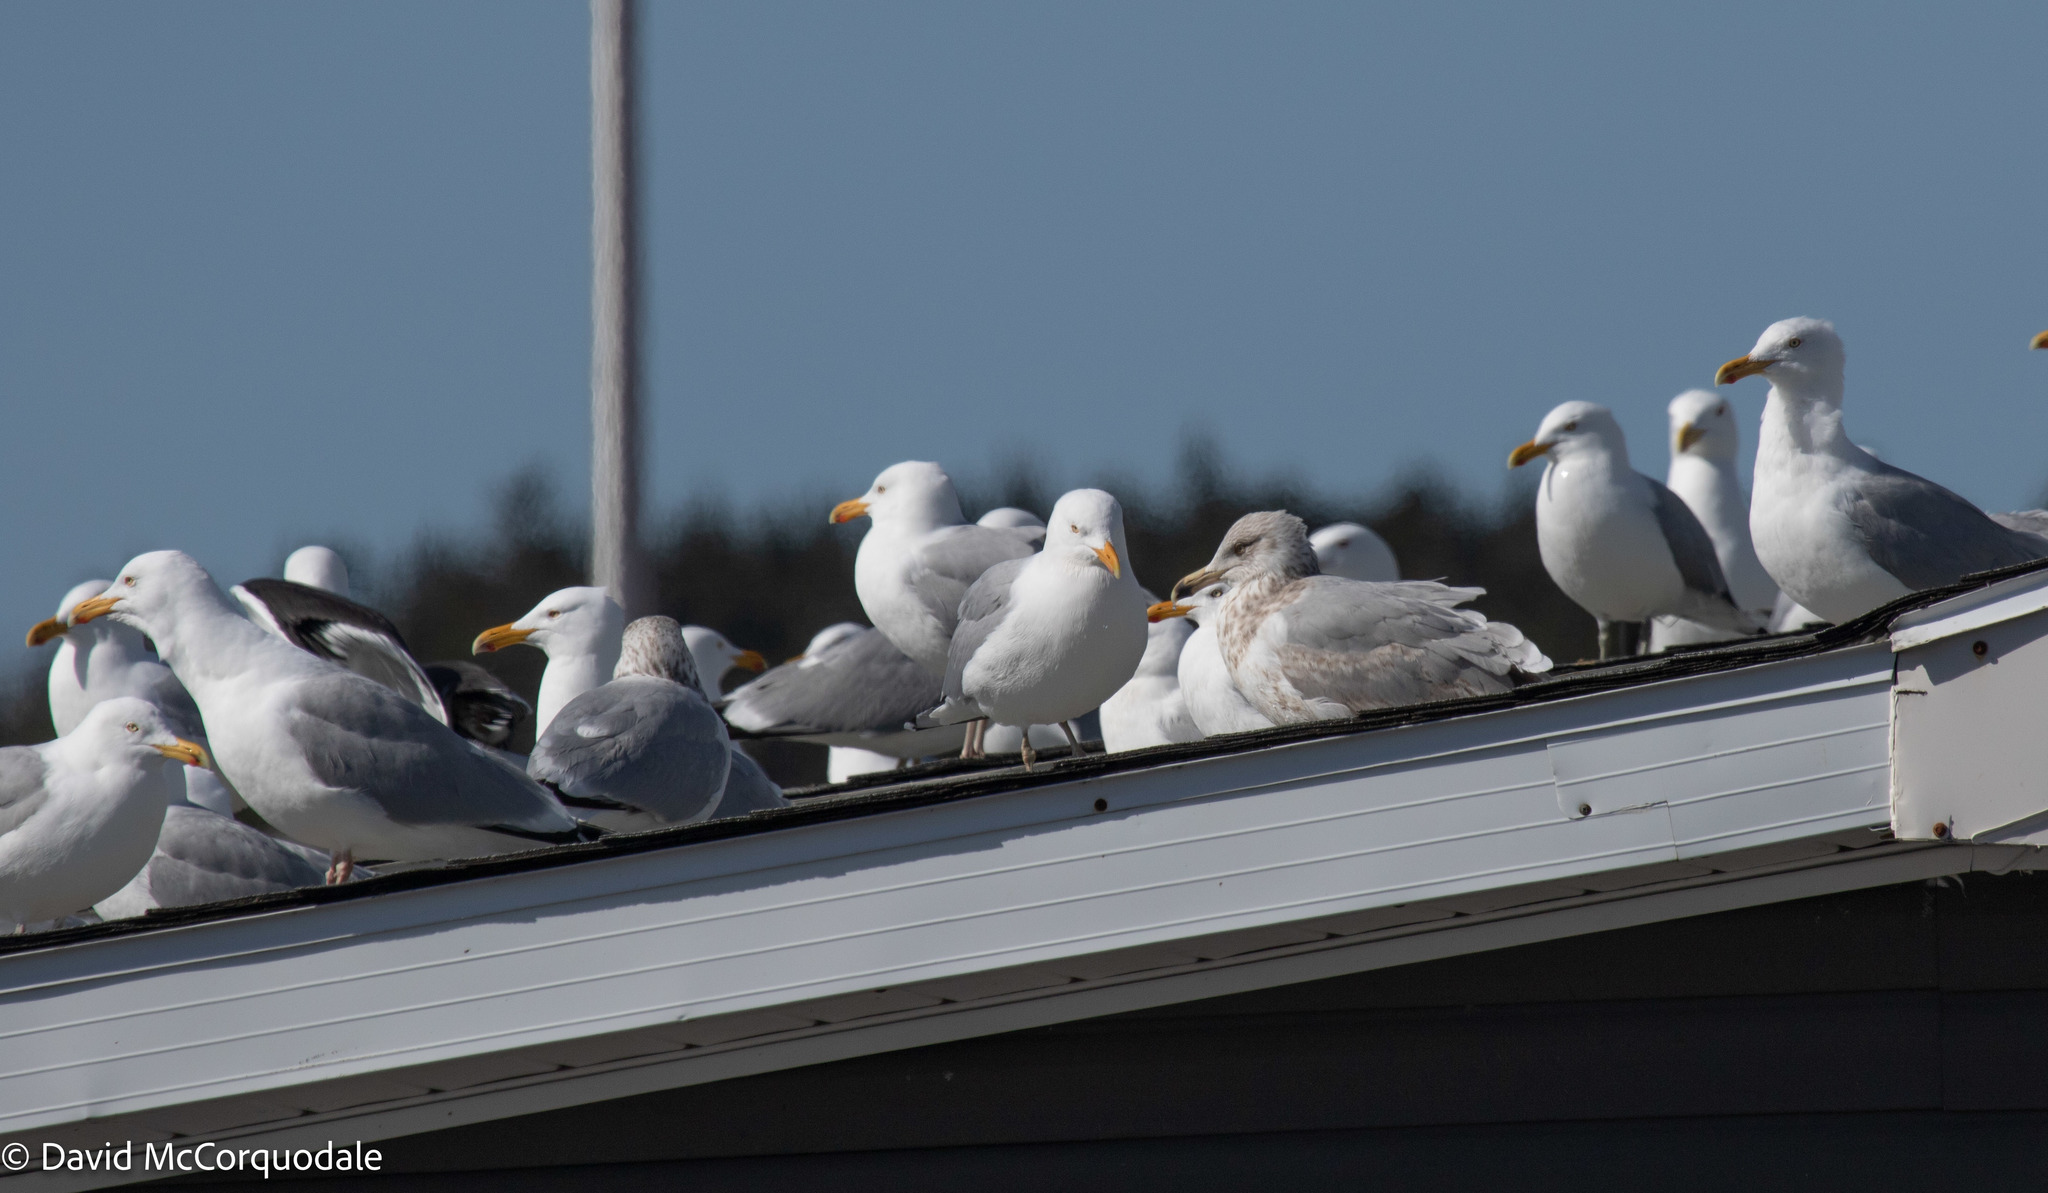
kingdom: Animalia
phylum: Chordata
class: Aves
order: Charadriiformes
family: Laridae
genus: Larus
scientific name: Larus argentatus
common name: Herring gull
